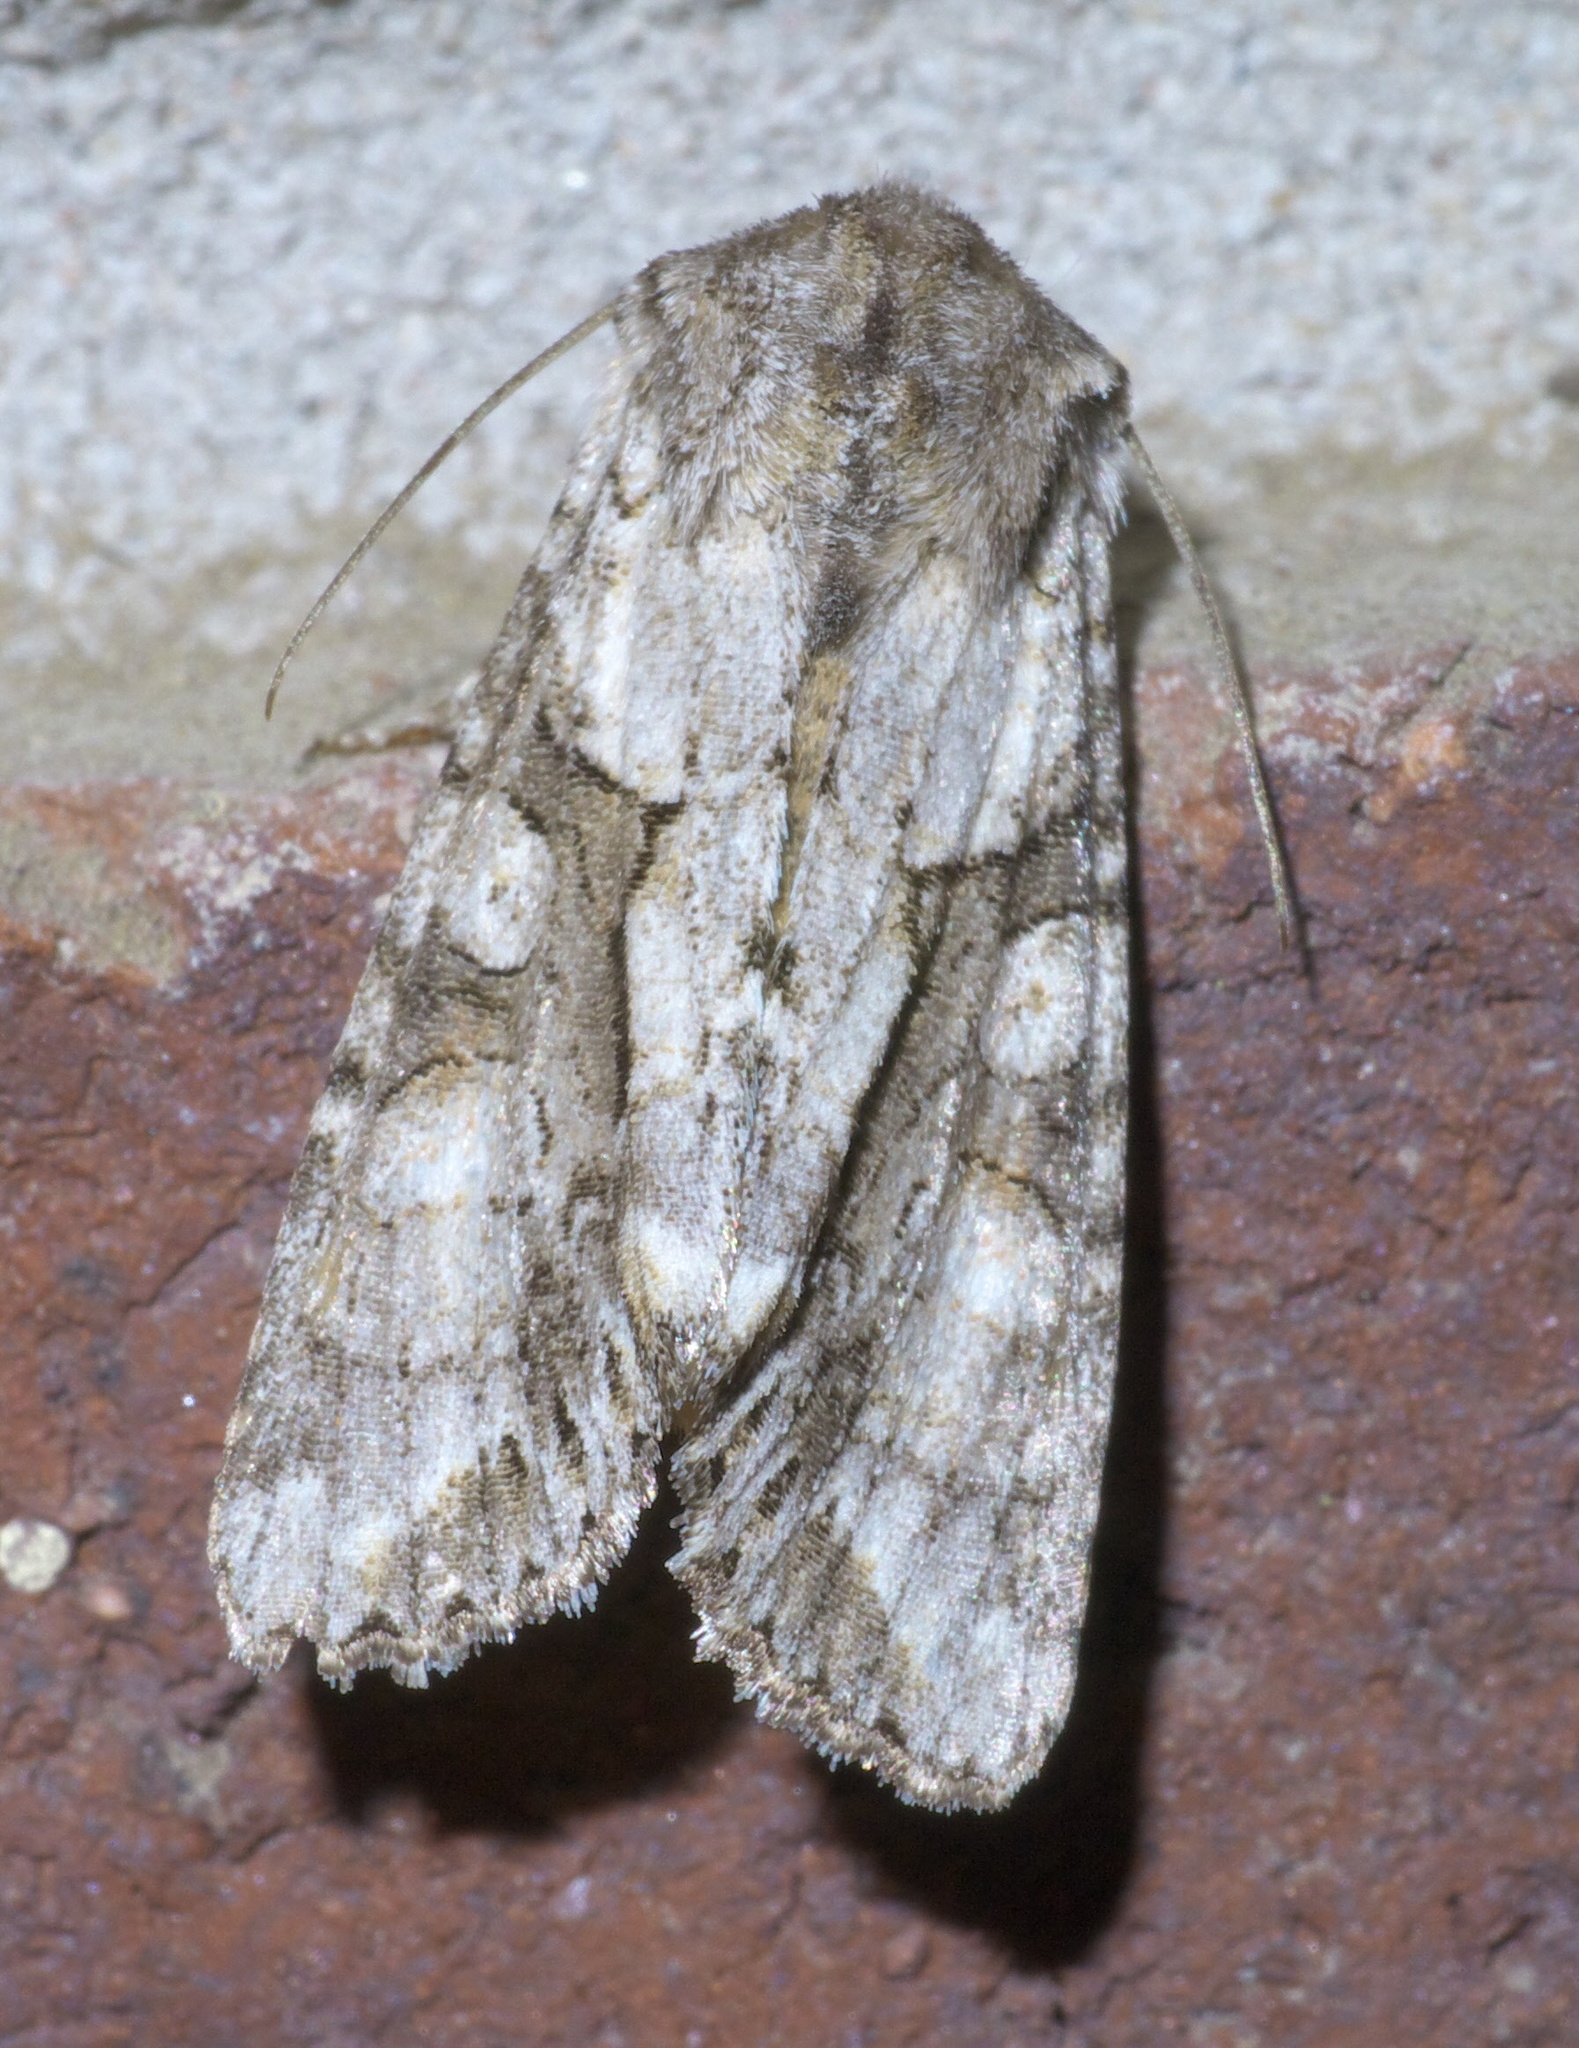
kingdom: Animalia
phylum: Arthropoda
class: Insecta
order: Lepidoptera
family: Noctuidae
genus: Achatia
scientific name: Achatia distincta
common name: Distinct quaker
